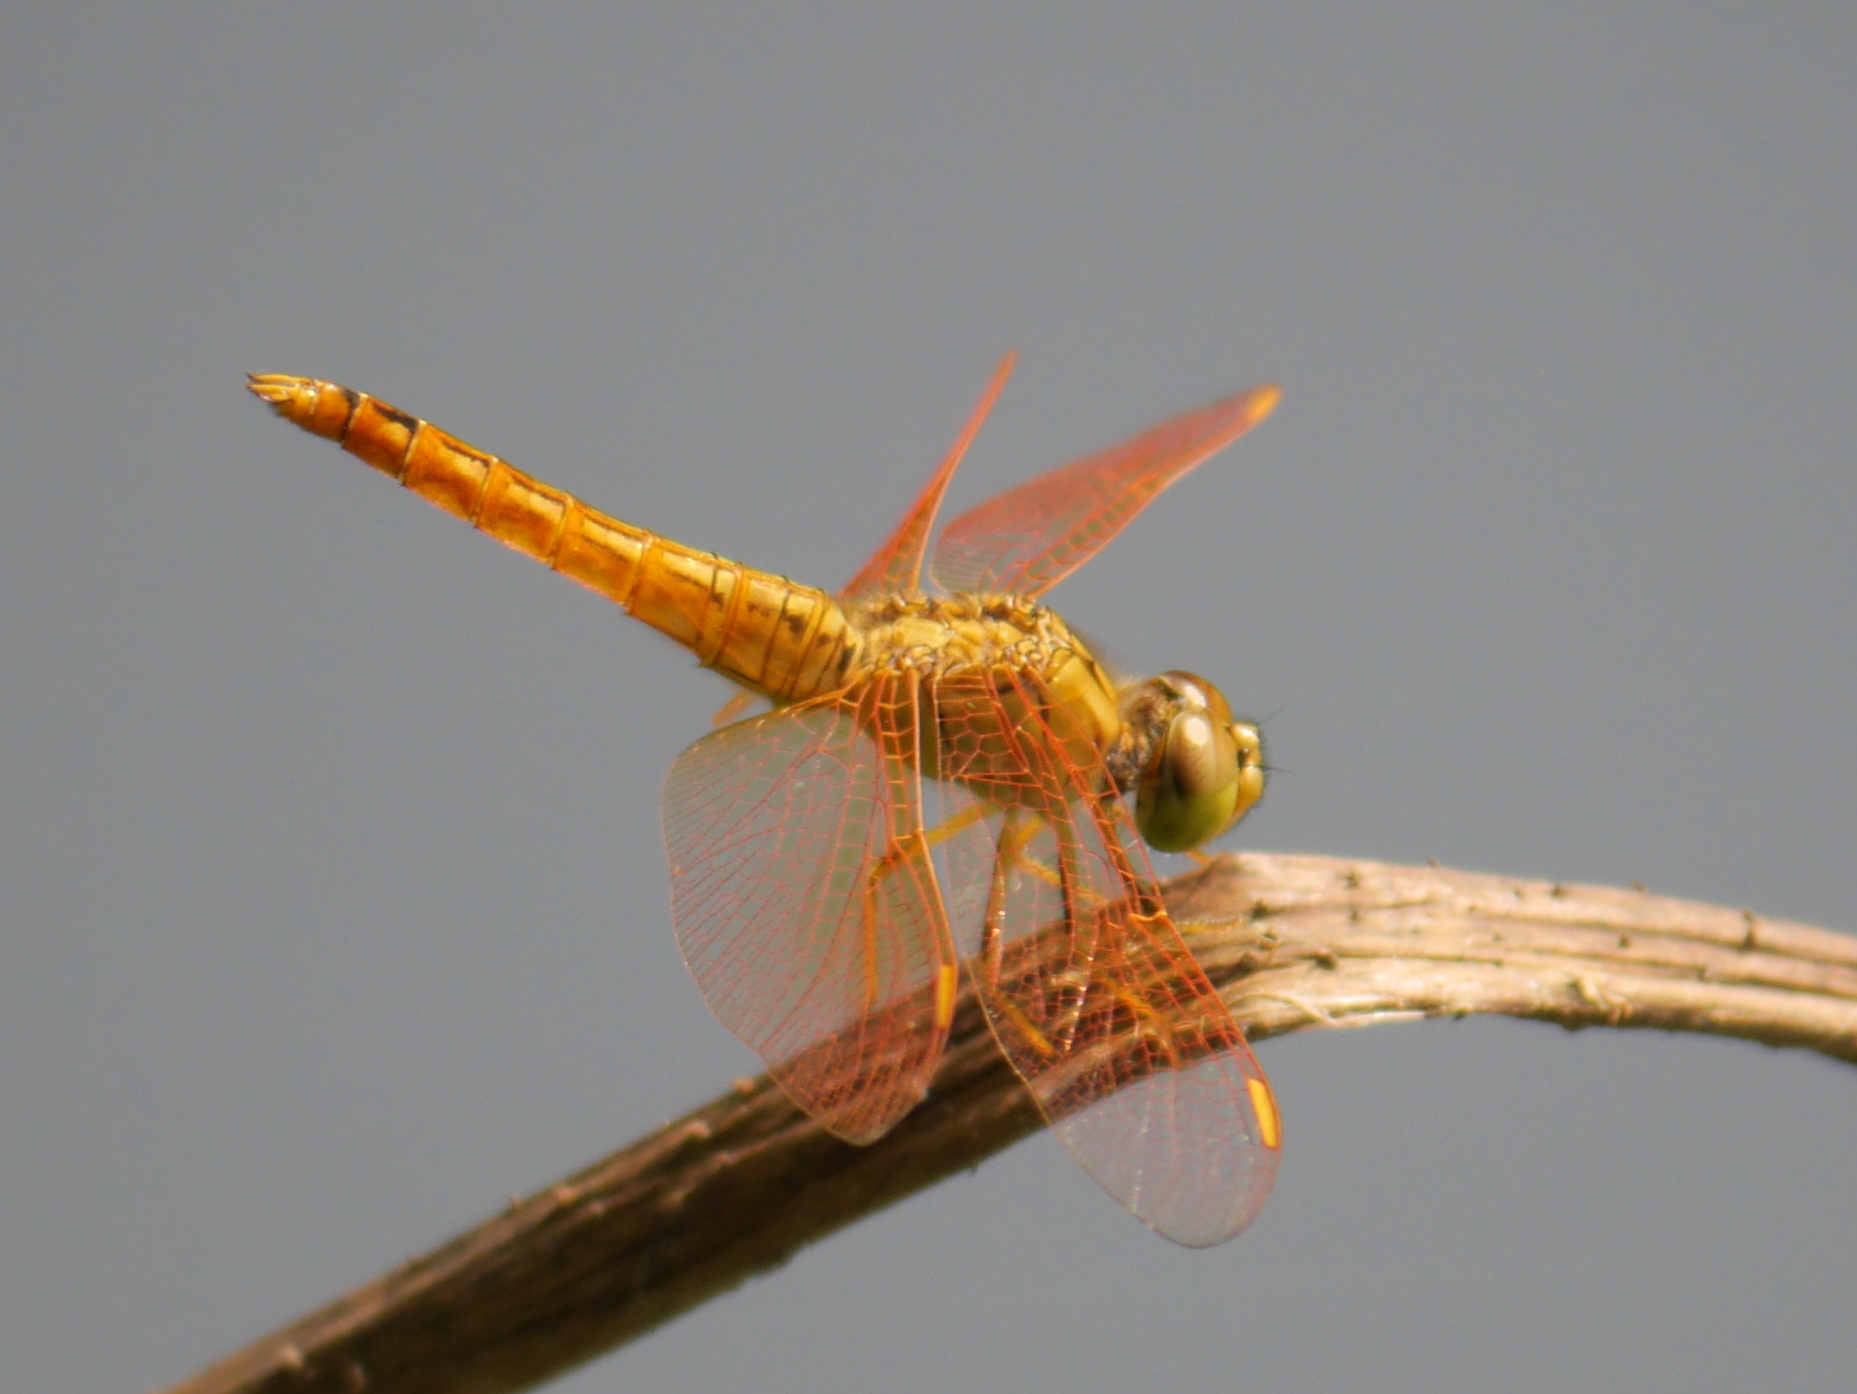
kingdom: Animalia
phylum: Arthropoda
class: Insecta
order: Odonata
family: Libellulidae
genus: Brachythemis
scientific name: Brachythemis contaminata
